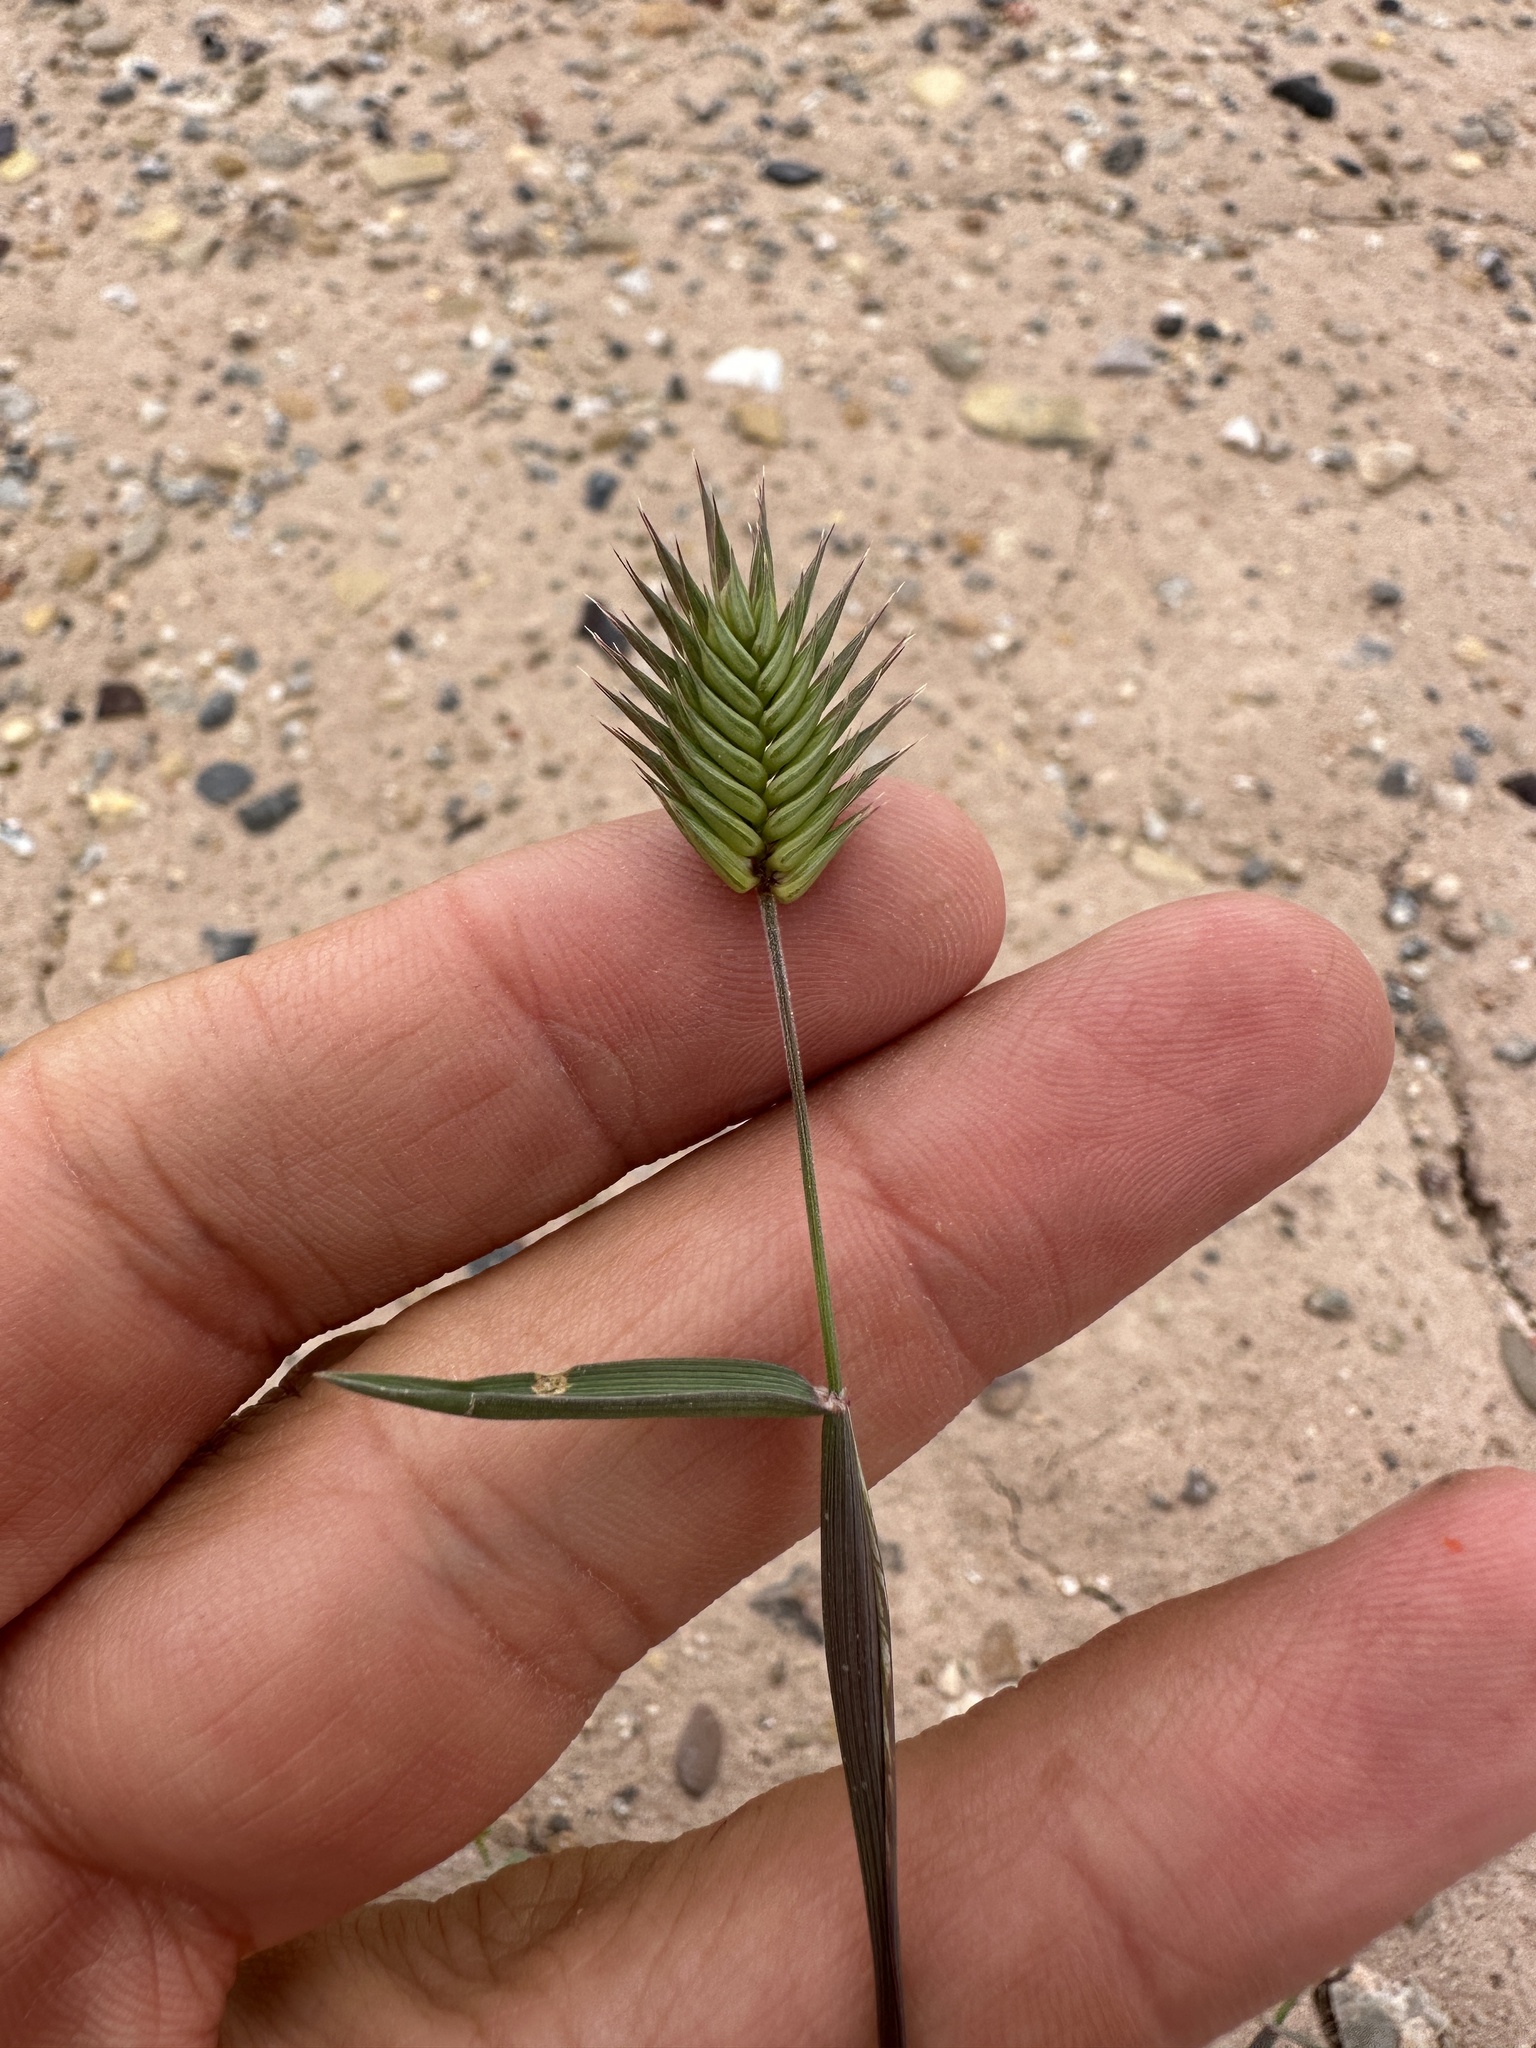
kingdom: Plantae
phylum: Tracheophyta
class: Liliopsida
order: Poales
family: Poaceae
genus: Eremopyrum
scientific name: Eremopyrum triticeum
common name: Annual wheatgrass
